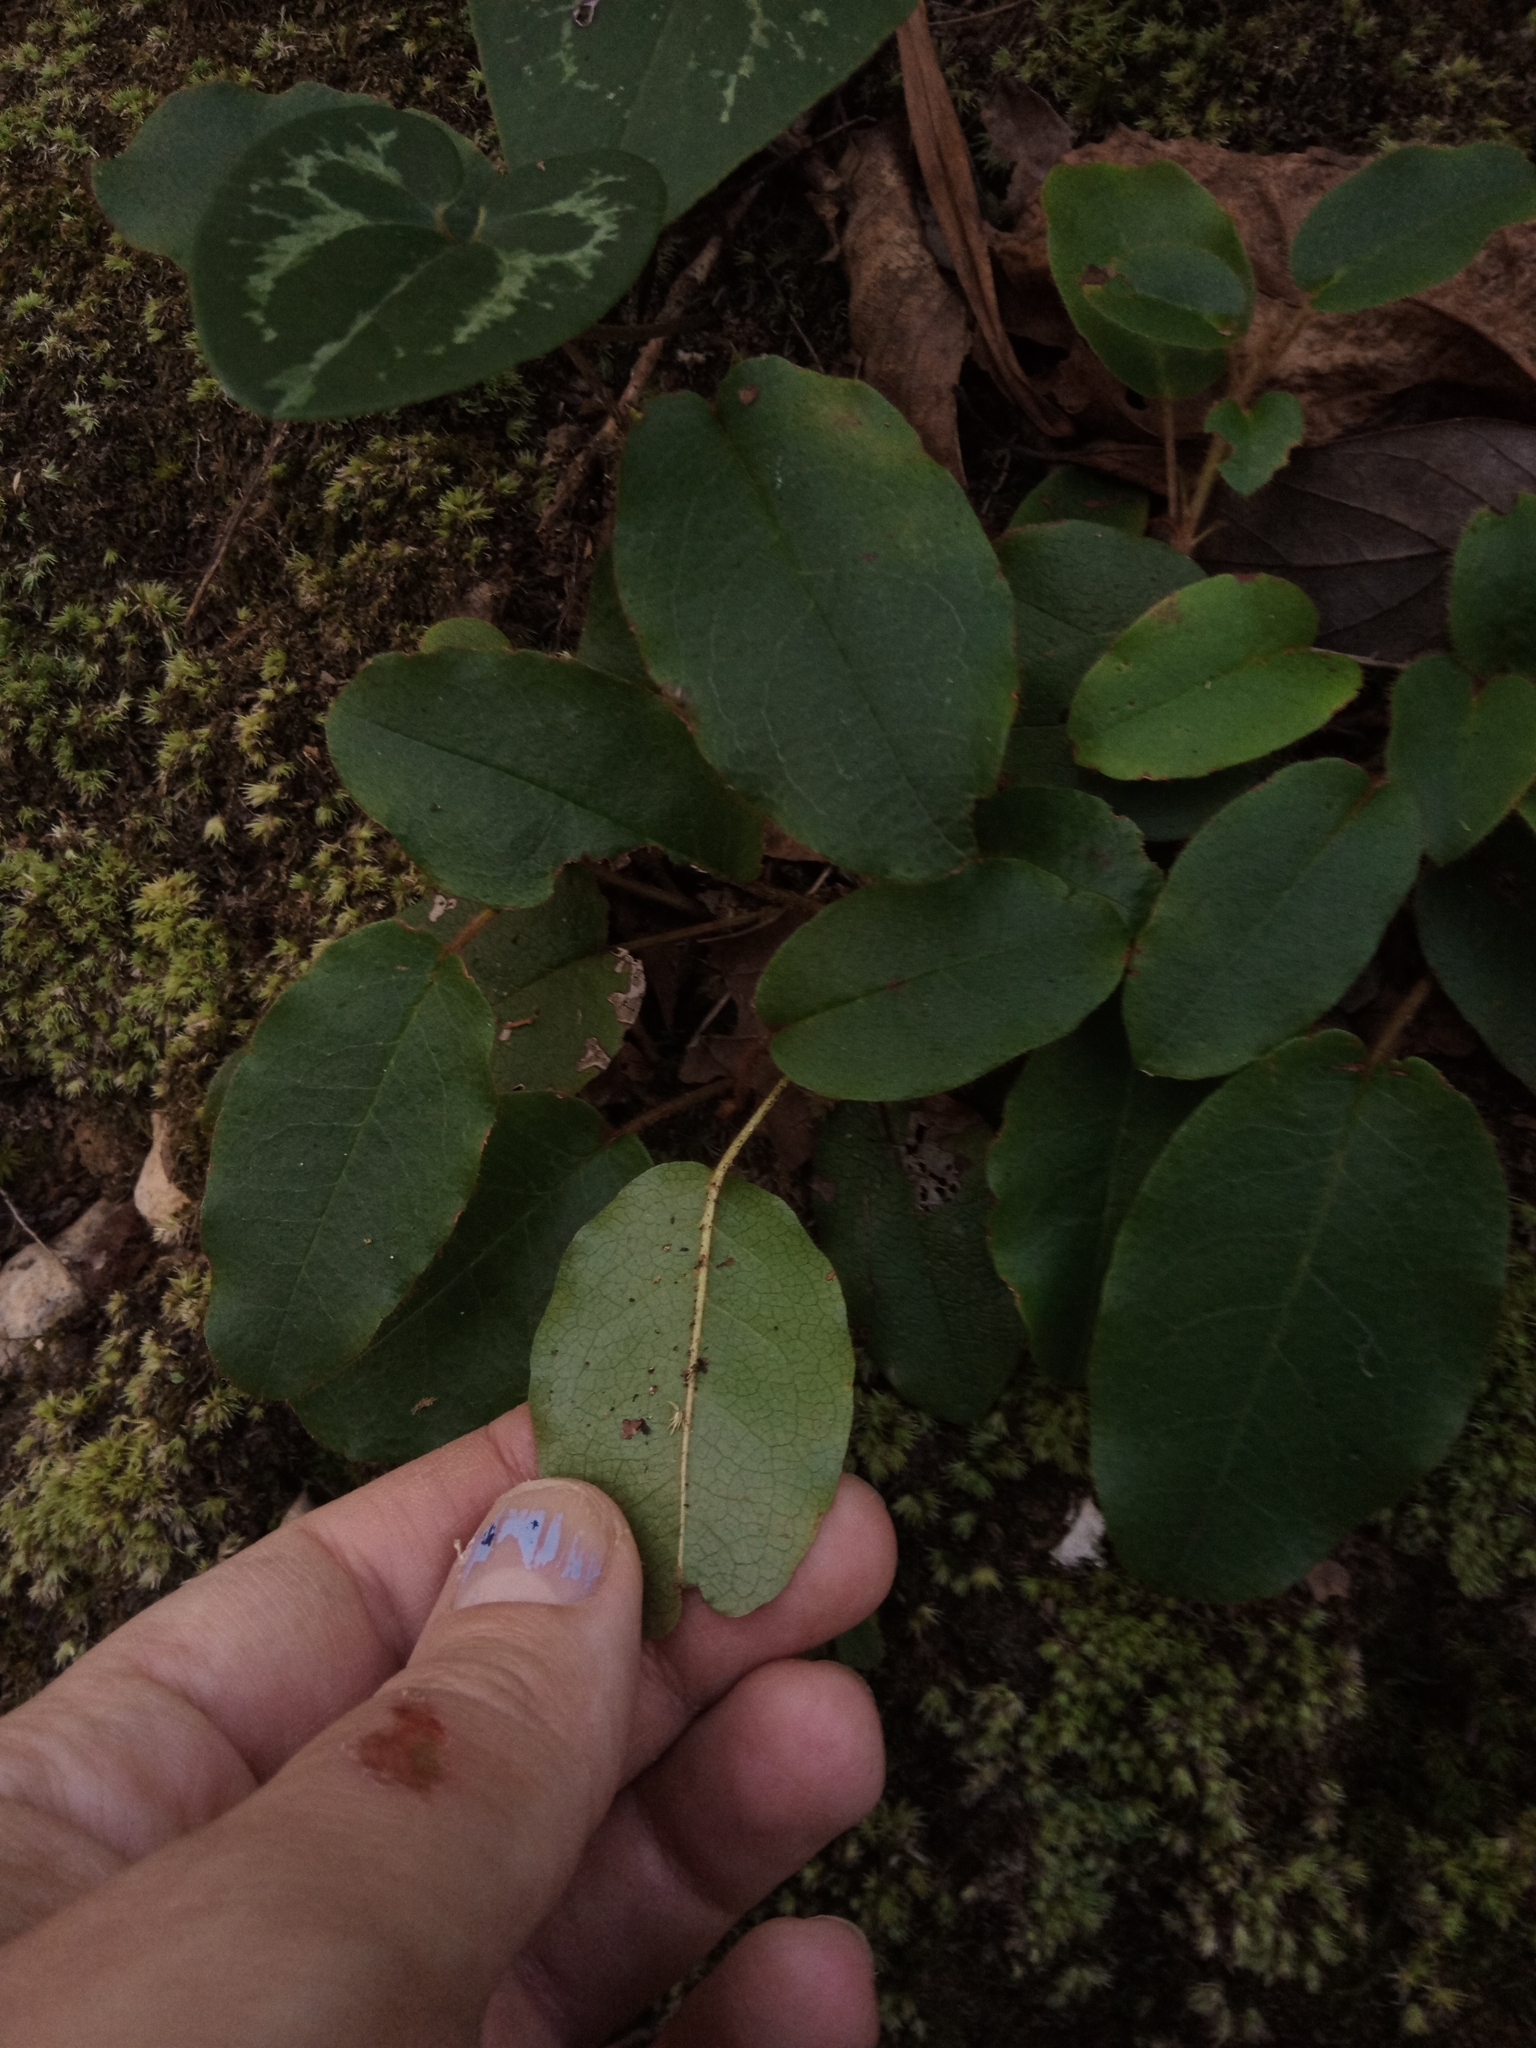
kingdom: Plantae
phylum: Tracheophyta
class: Magnoliopsida
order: Ericales
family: Ericaceae
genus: Epigaea
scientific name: Epigaea repens
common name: Gravelroot
